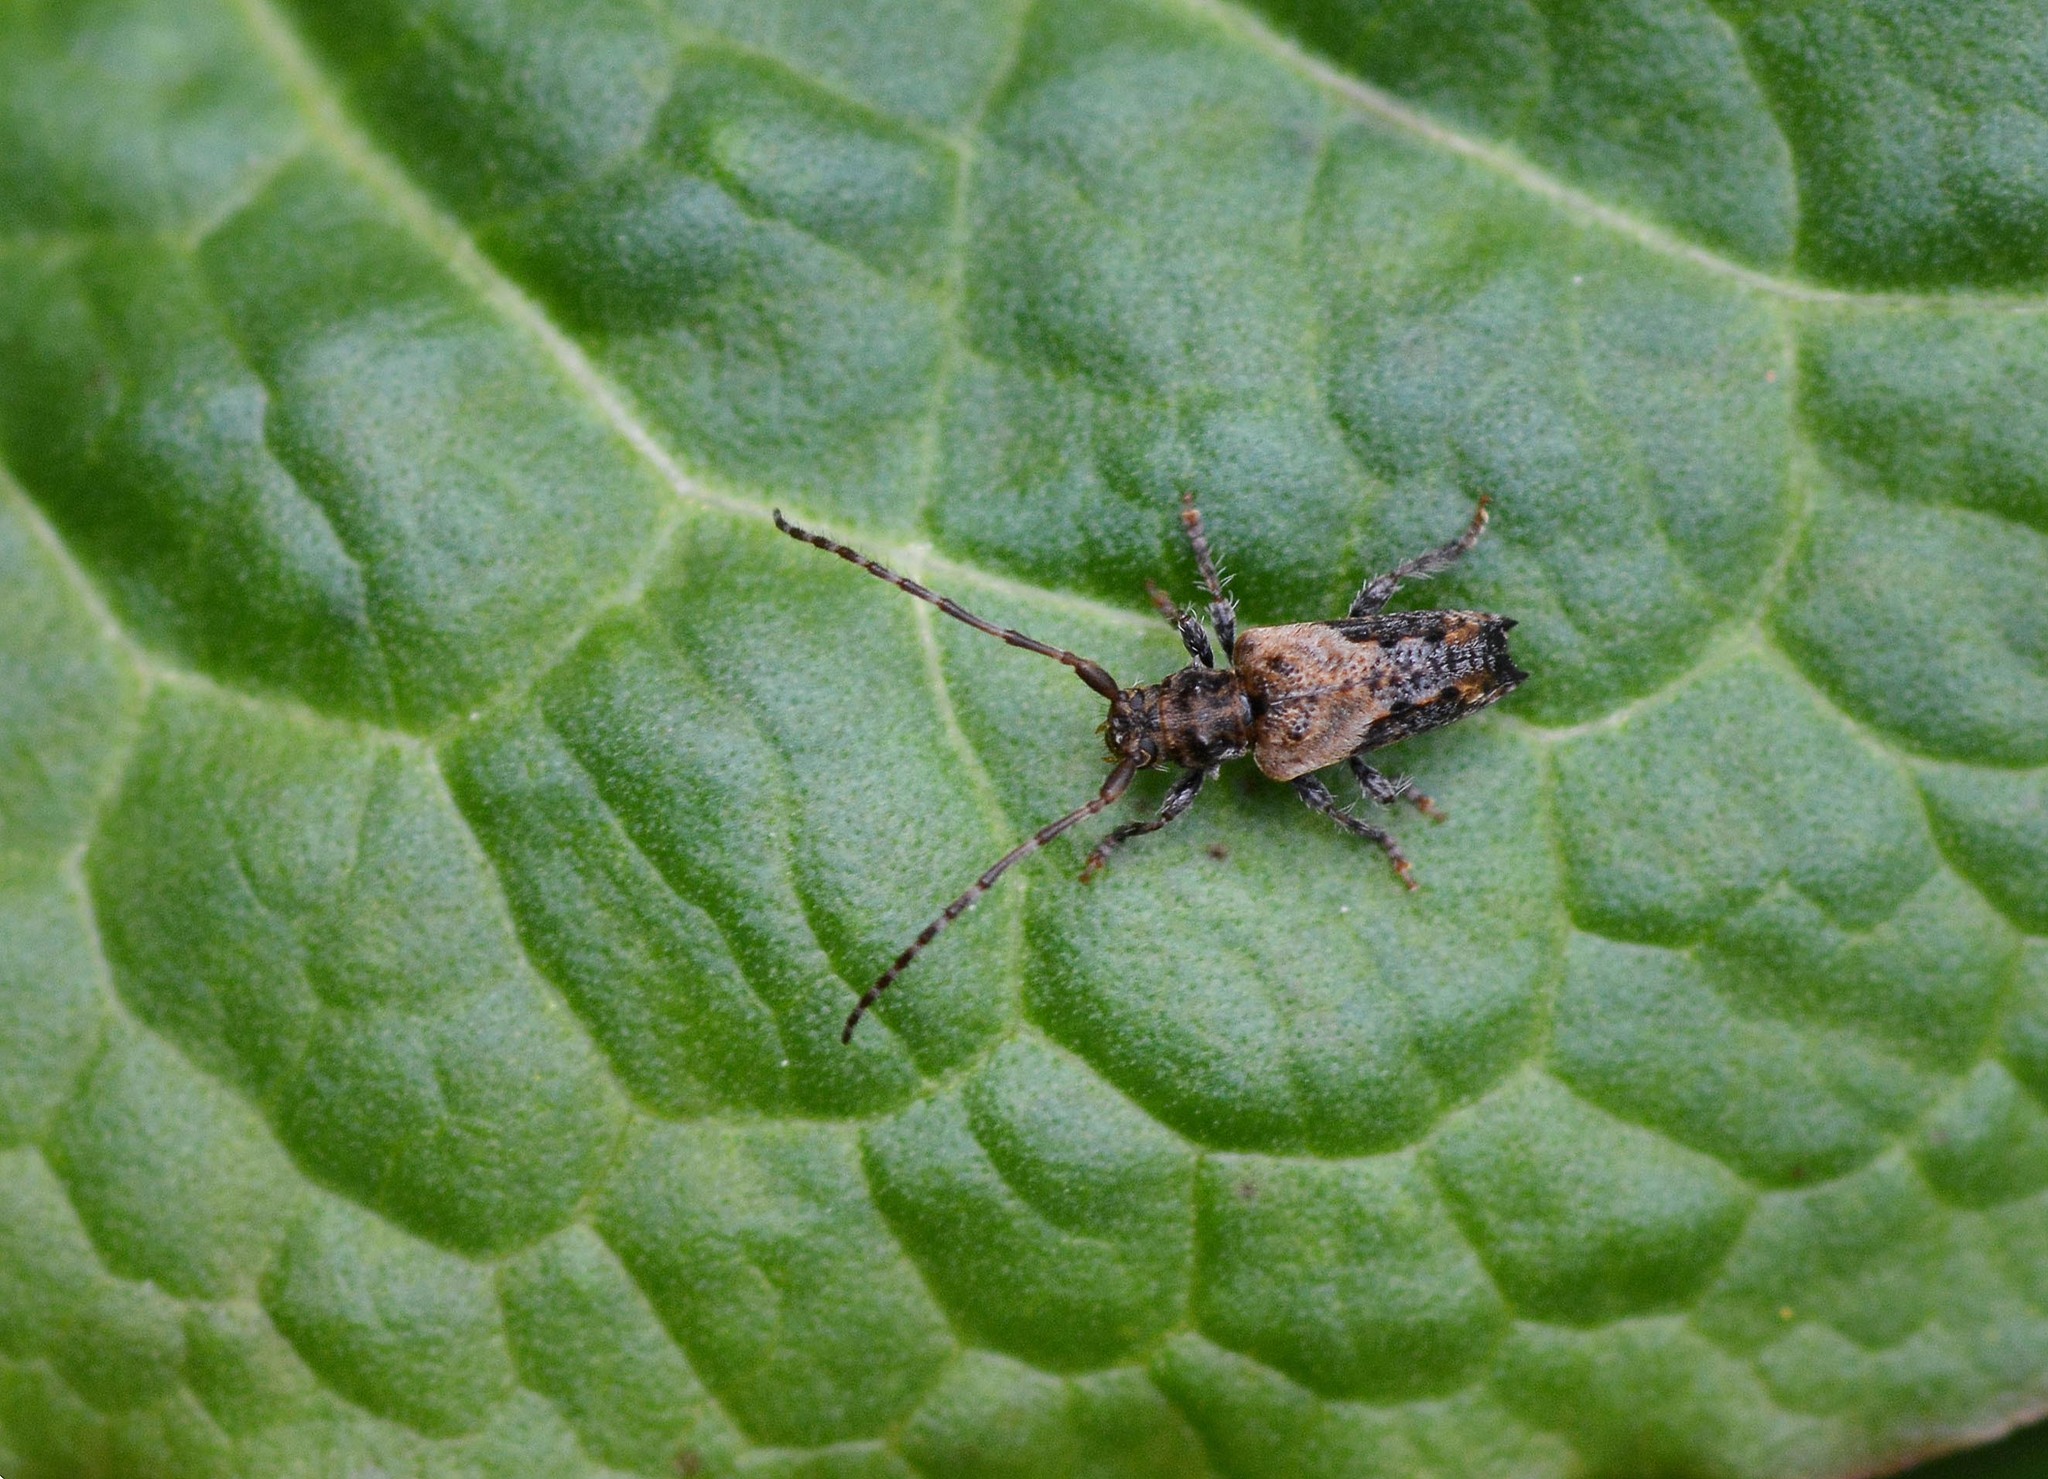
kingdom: Animalia
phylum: Arthropoda
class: Insecta
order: Coleoptera
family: Cerambycidae
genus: Pogonocherus
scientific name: Pogonocherus hispidus
